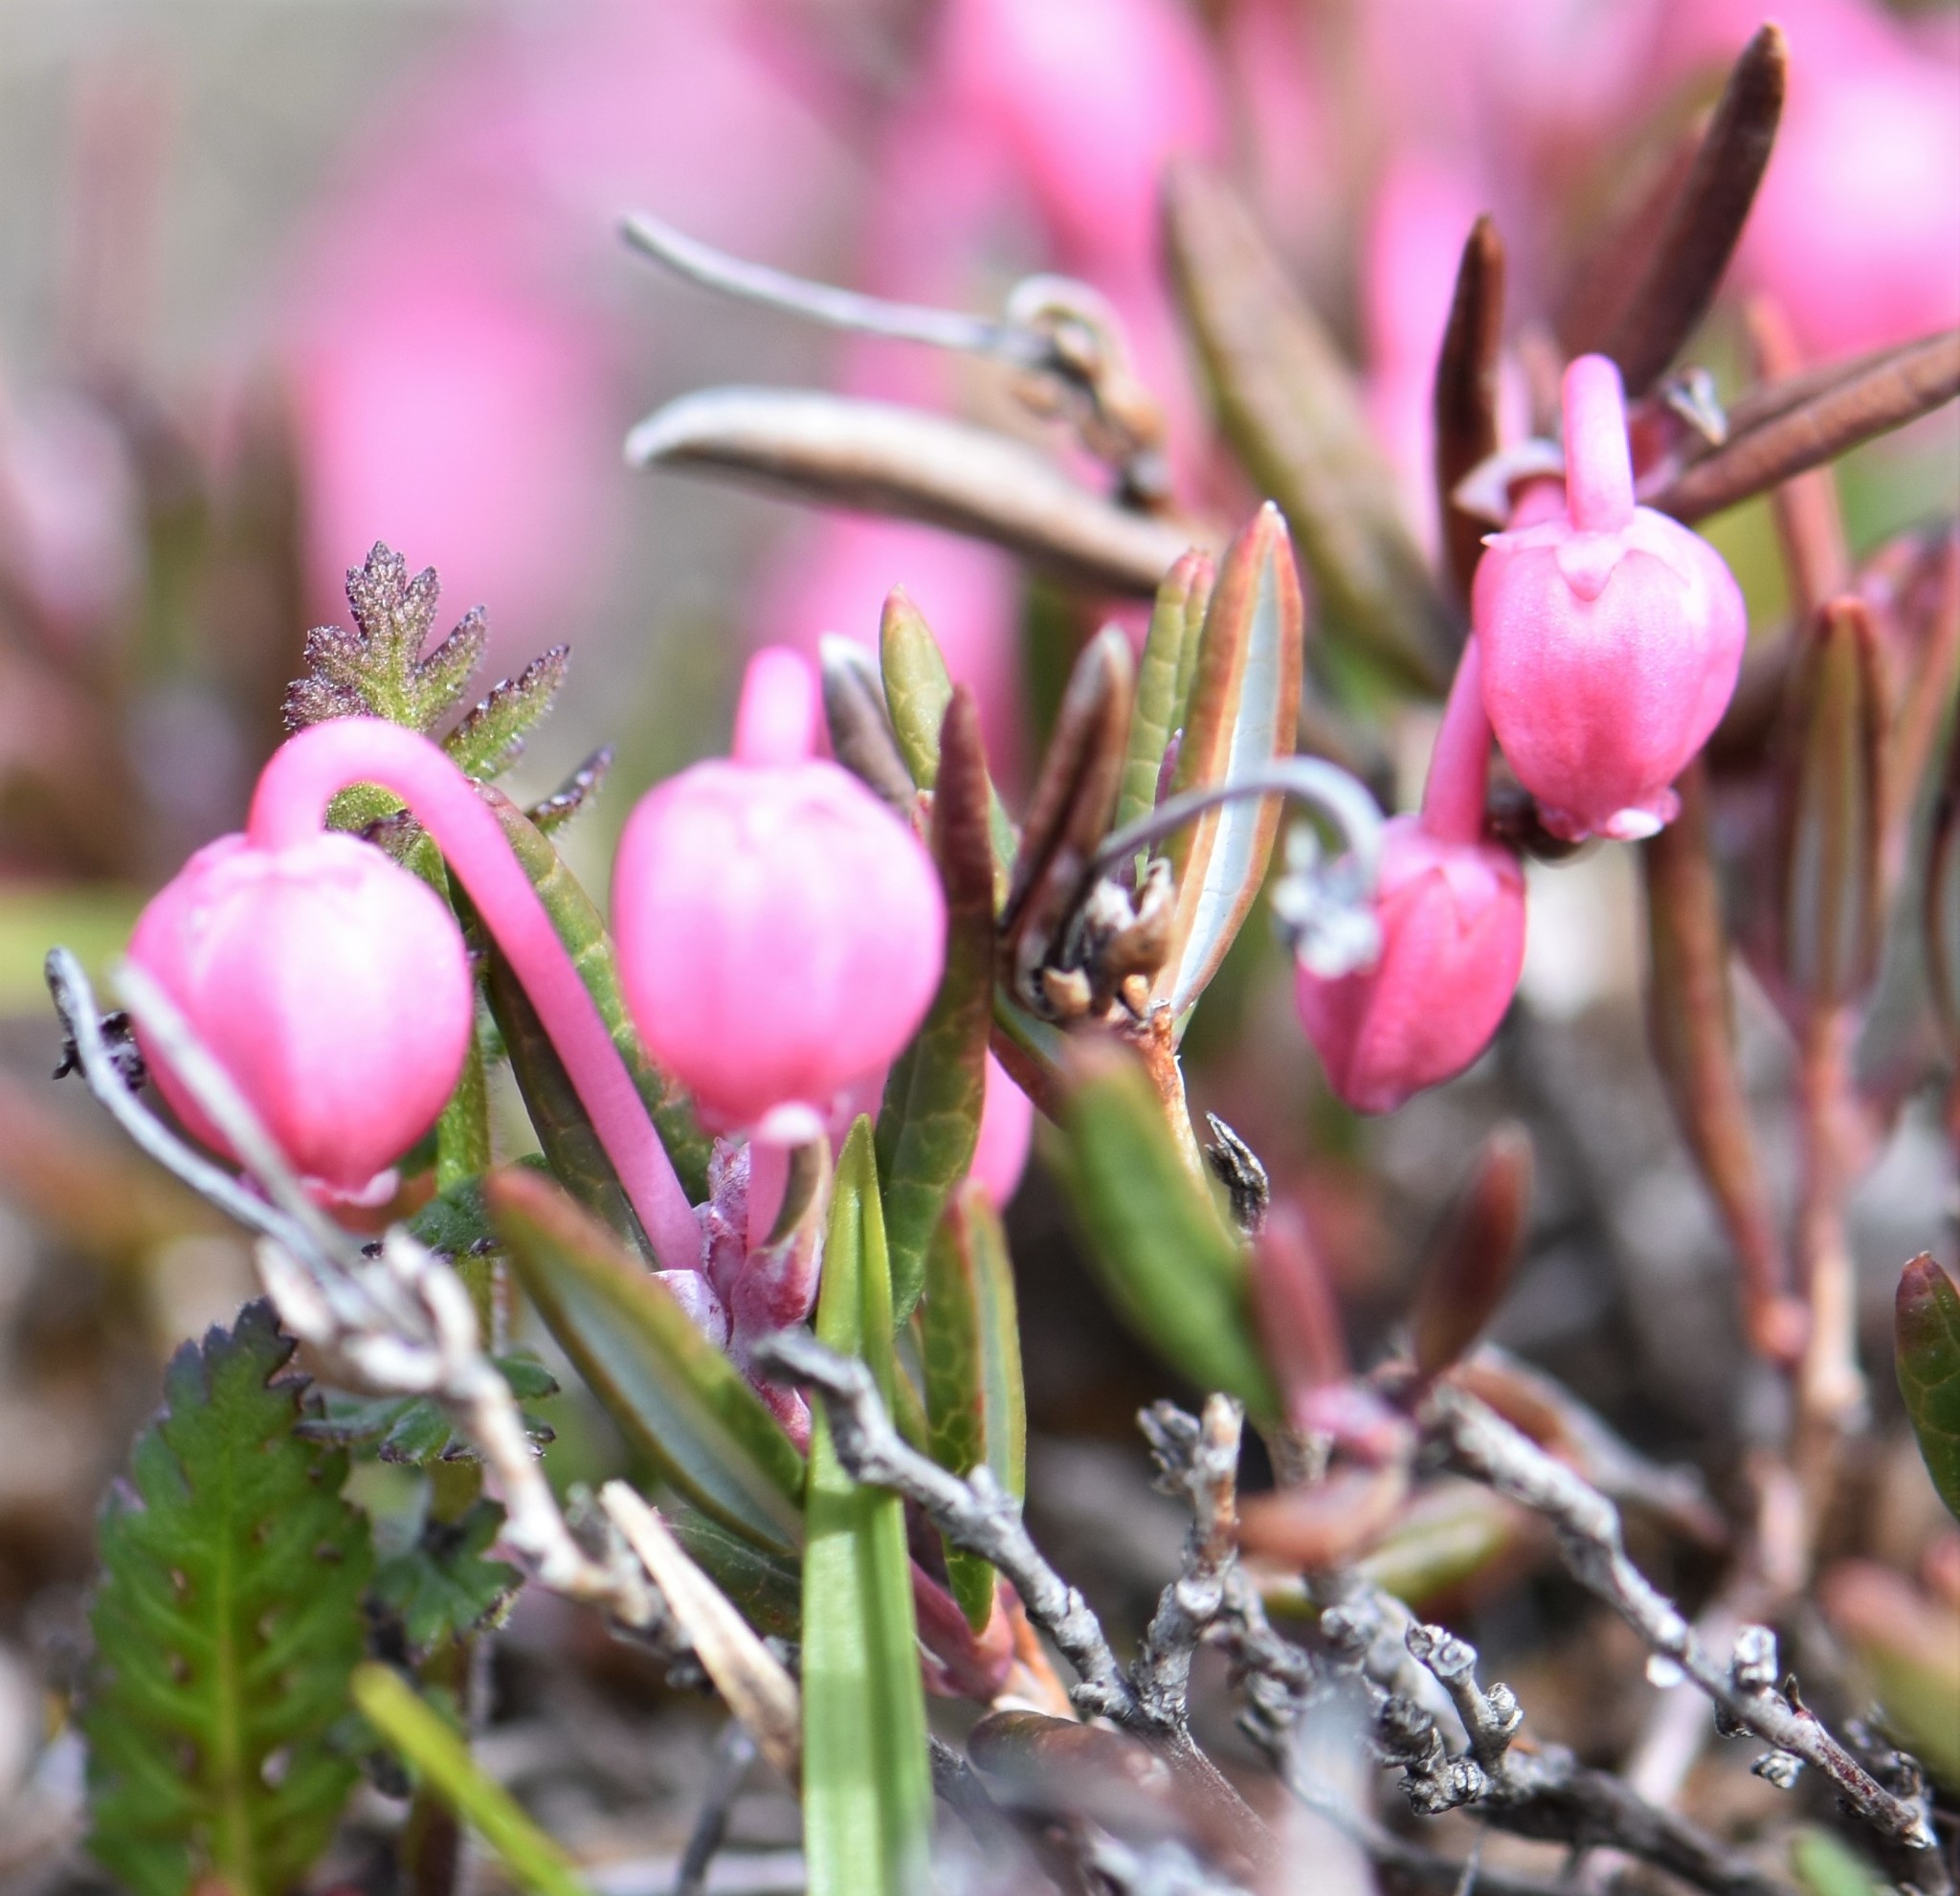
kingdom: Plantae
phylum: Tracheophyta
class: Magnoliopsida
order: Ericales
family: Ericaceae
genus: Andromeda
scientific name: Andromeda polifolia
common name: Bog-rosemary
